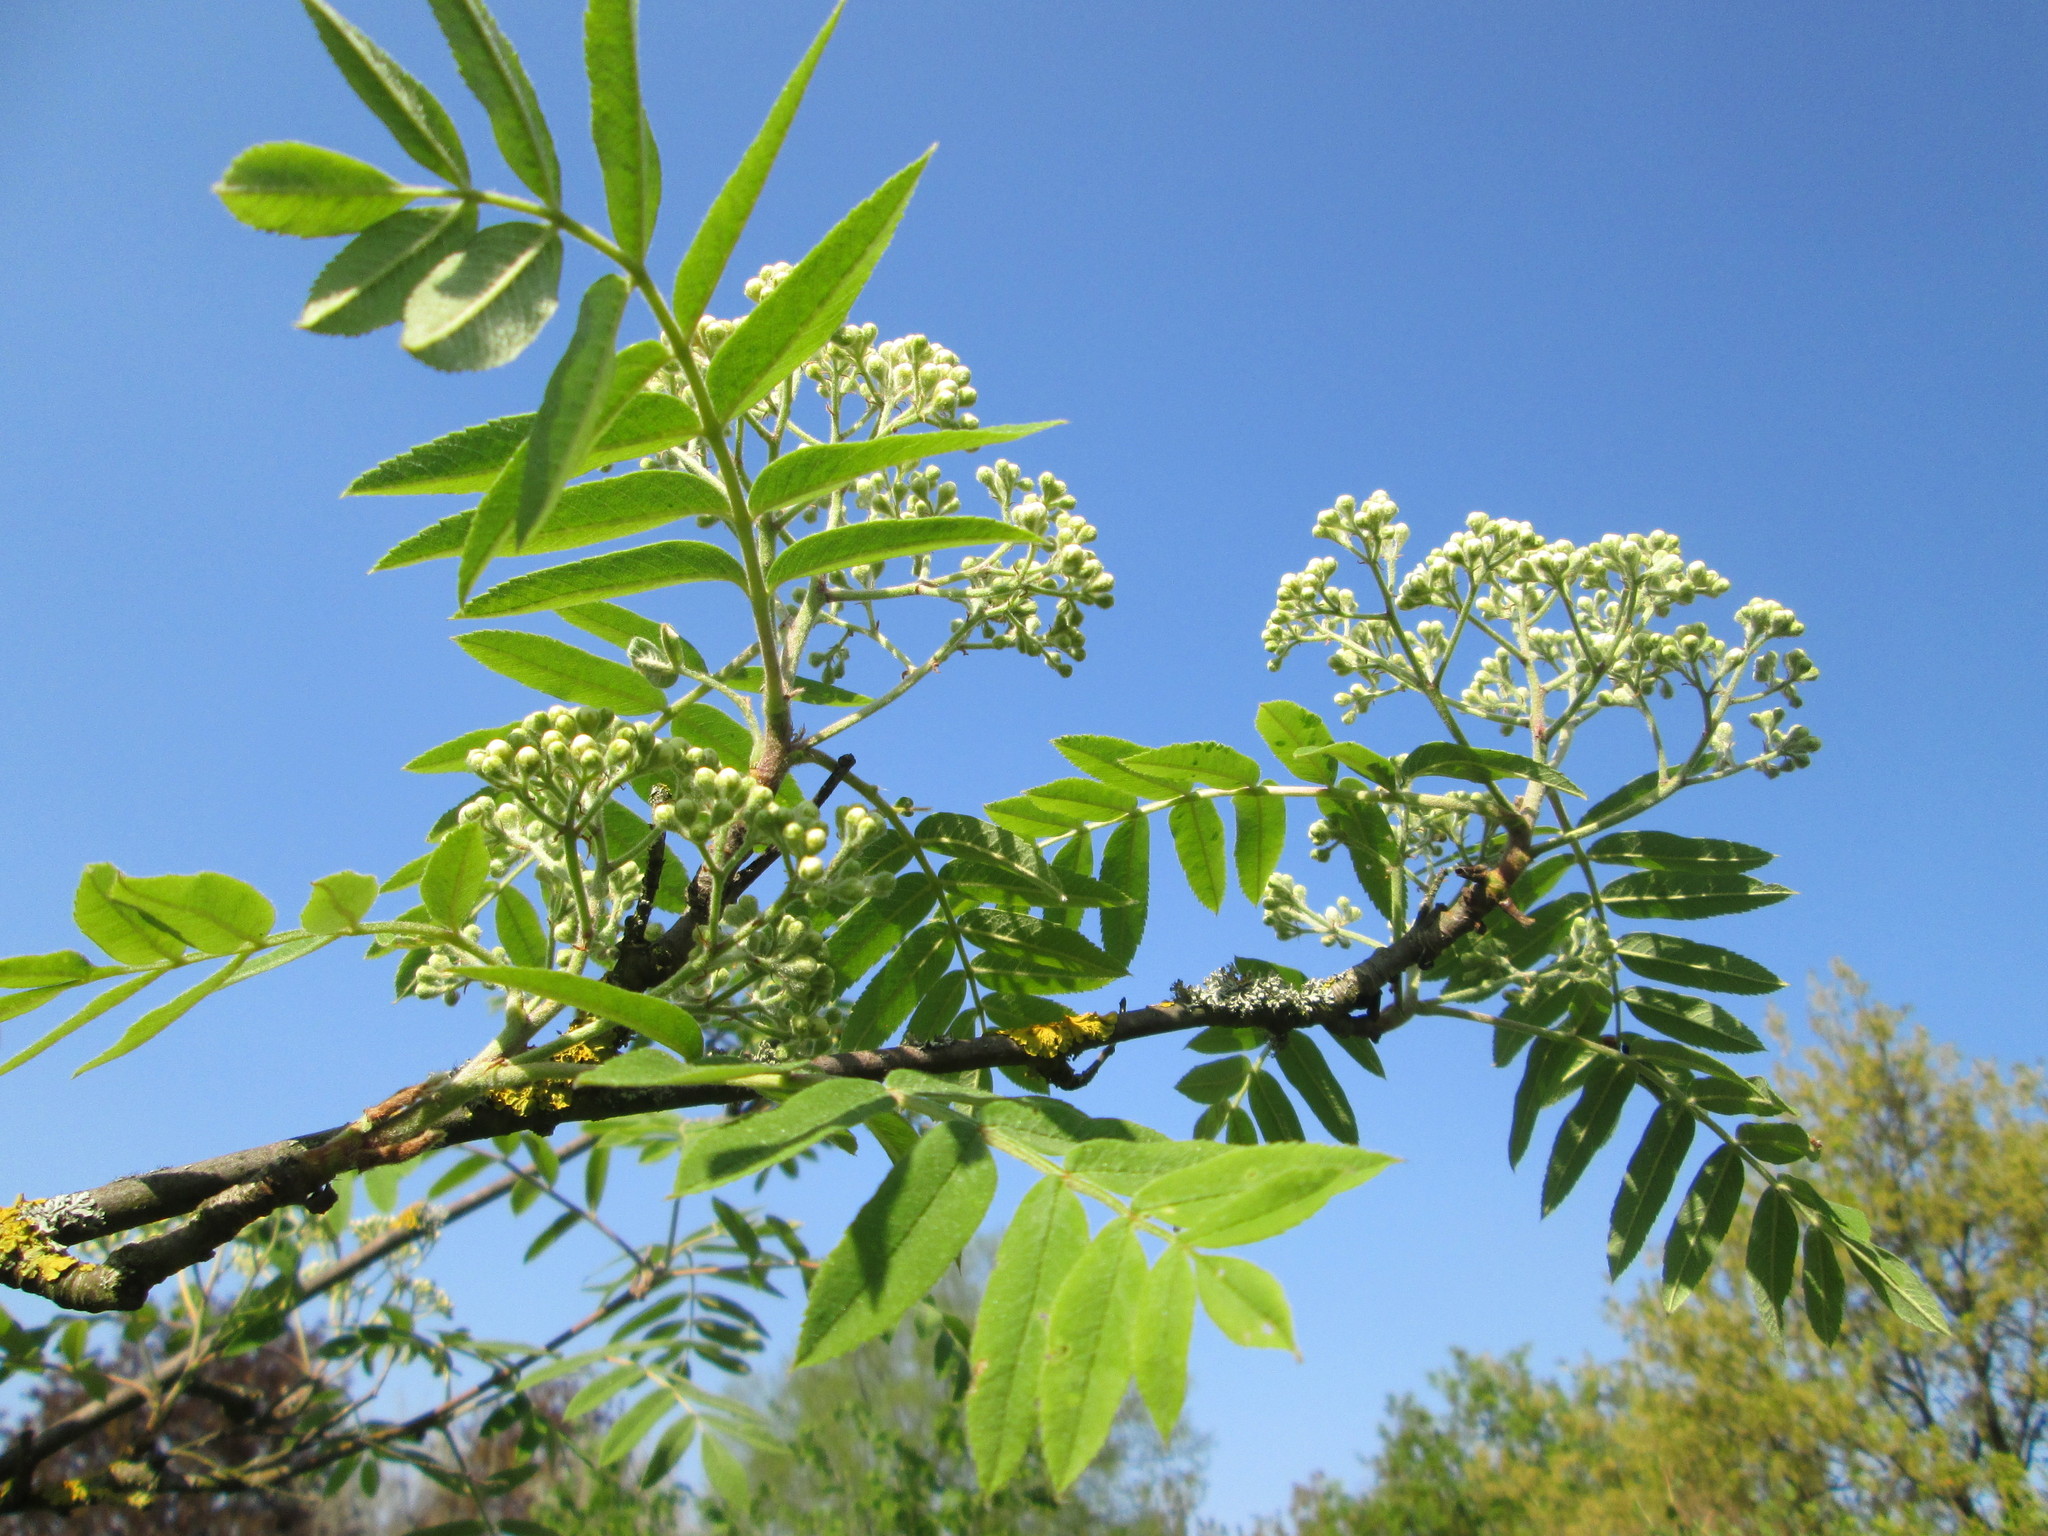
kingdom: Plantae
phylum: Tracheophyta
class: Magnoliopsida
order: Rosales
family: Rosaceae
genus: Sorbus
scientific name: Sorbus aucuparia
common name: Rowan
